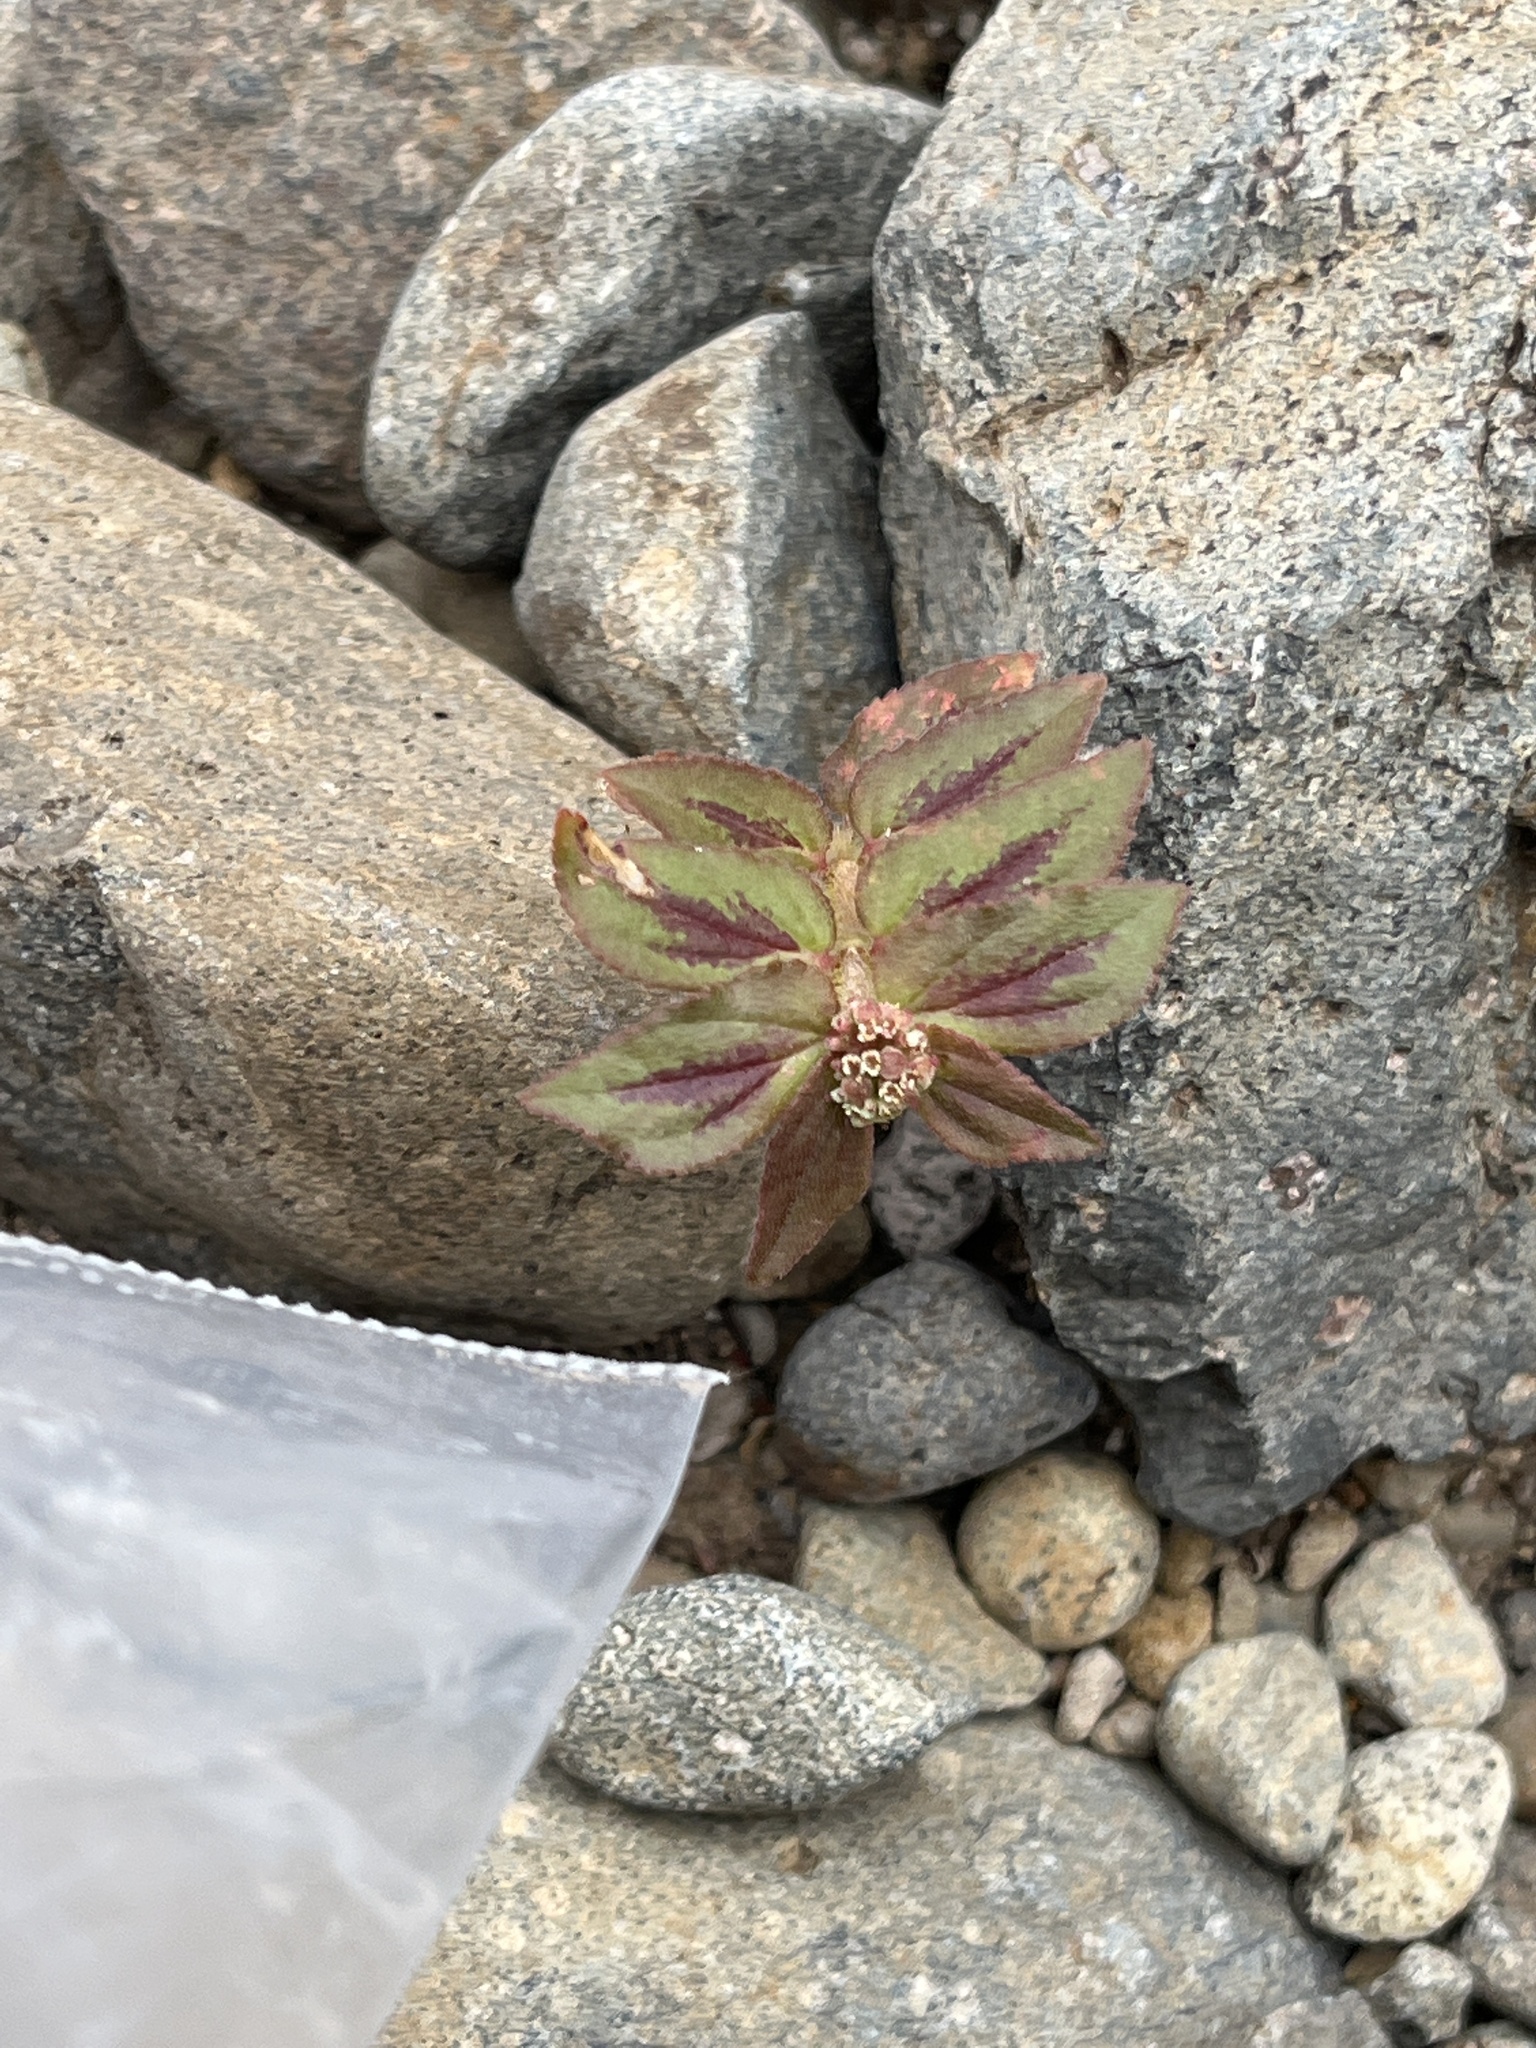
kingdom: Plantae
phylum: Tracheophyta
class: Magnoliopsida
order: Malpighiales
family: Euphorbiaceae
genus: Euphorbia
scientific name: Euphorbia hirta
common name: Pillpod sandmat
